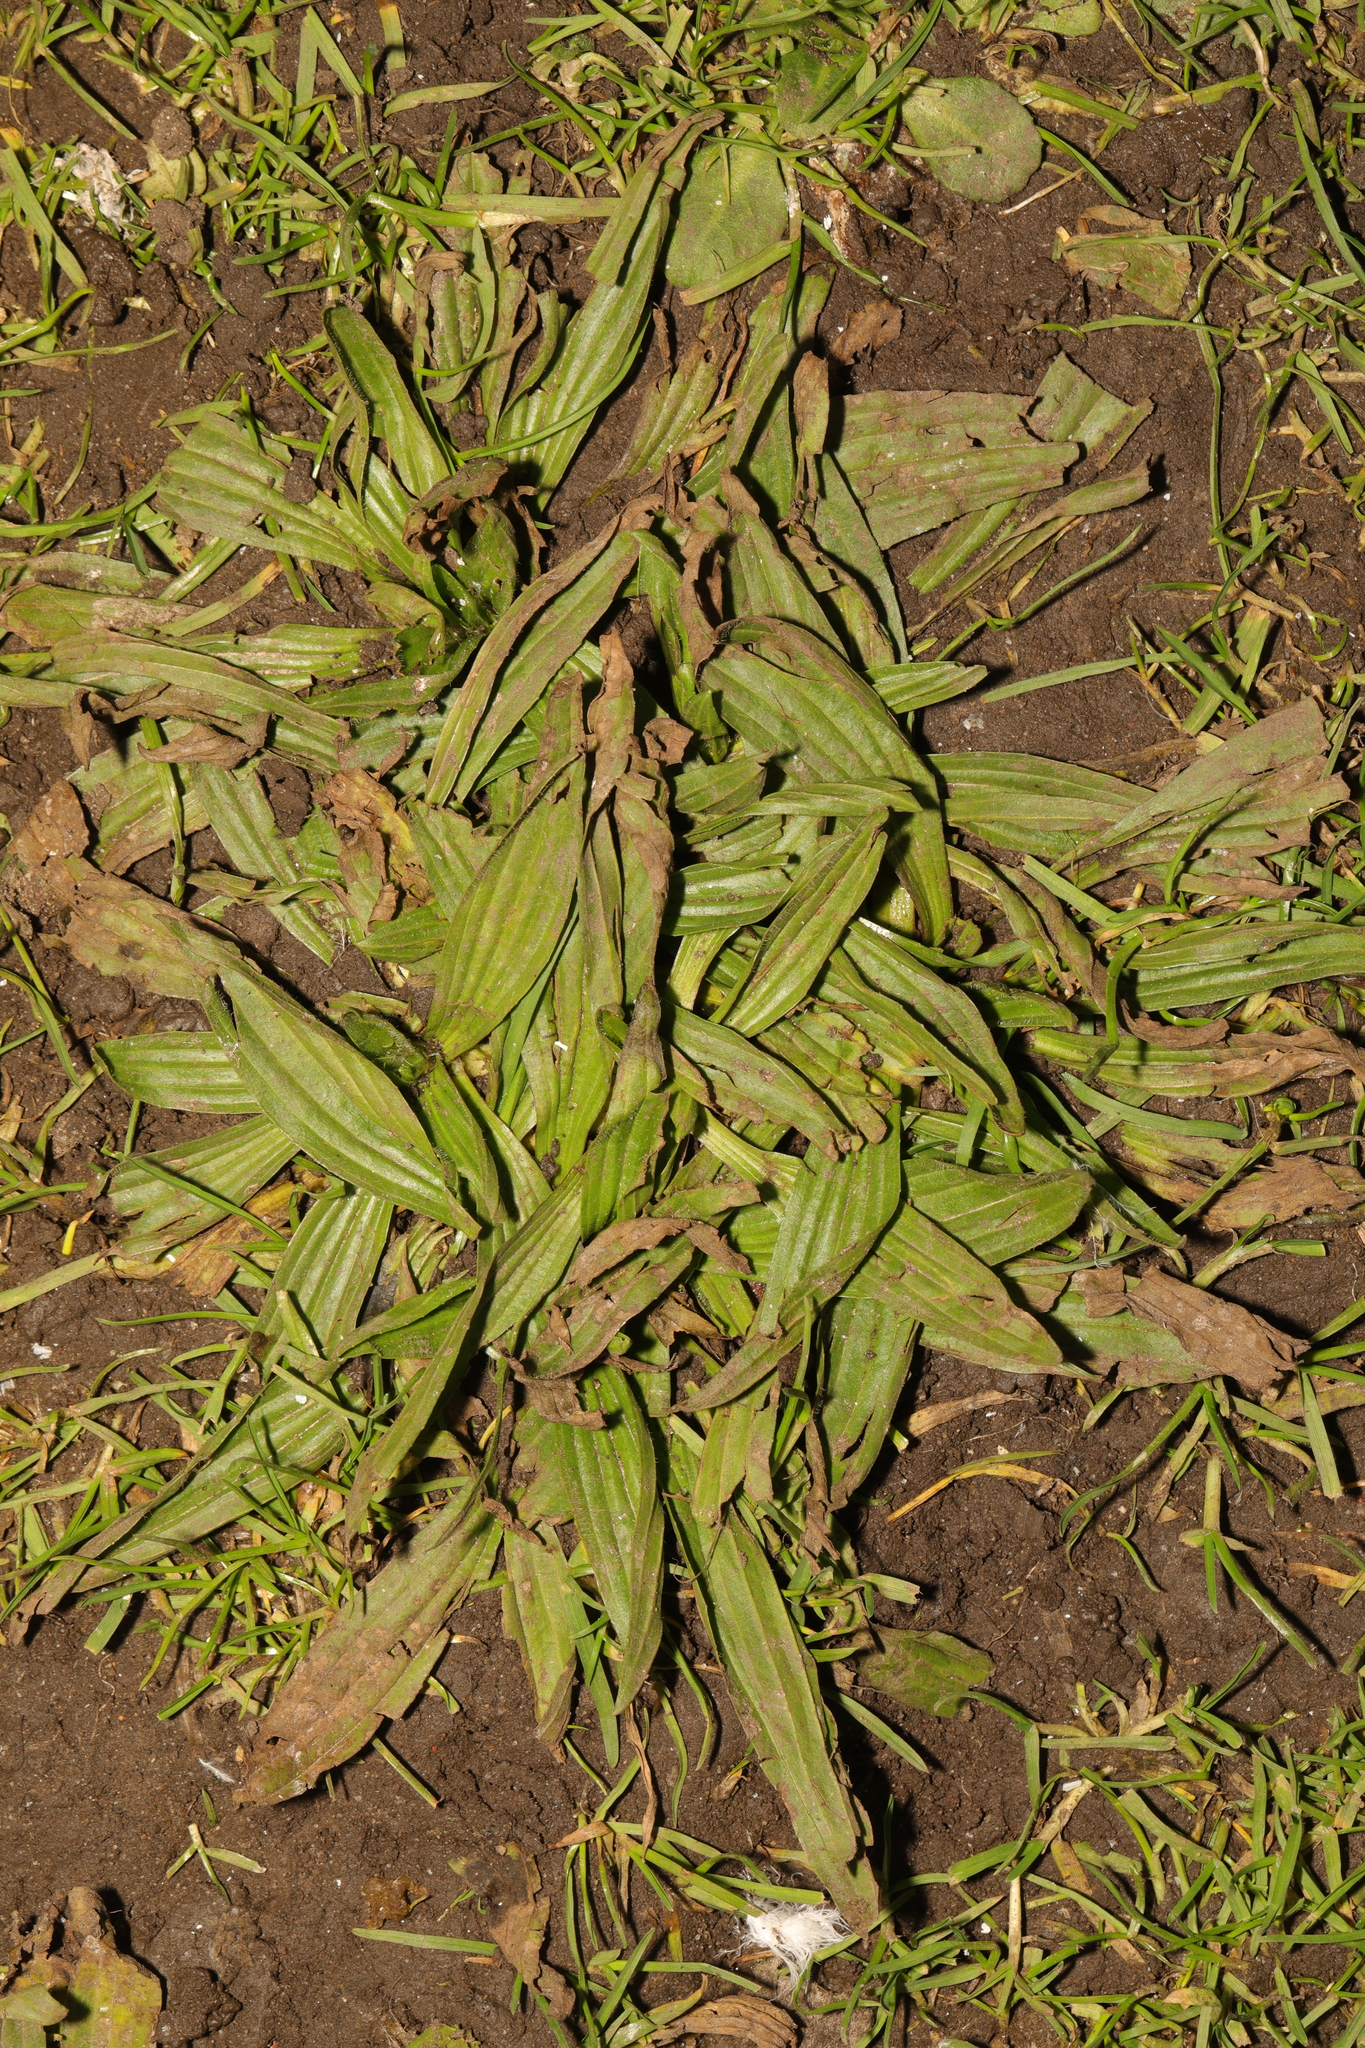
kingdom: Plantae
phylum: Tracheophyta
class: Magnoliopsida
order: Lamiales
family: Plantaginaceae
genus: Plantago
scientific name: Plantago lanceolata
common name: Ribwort plantain
